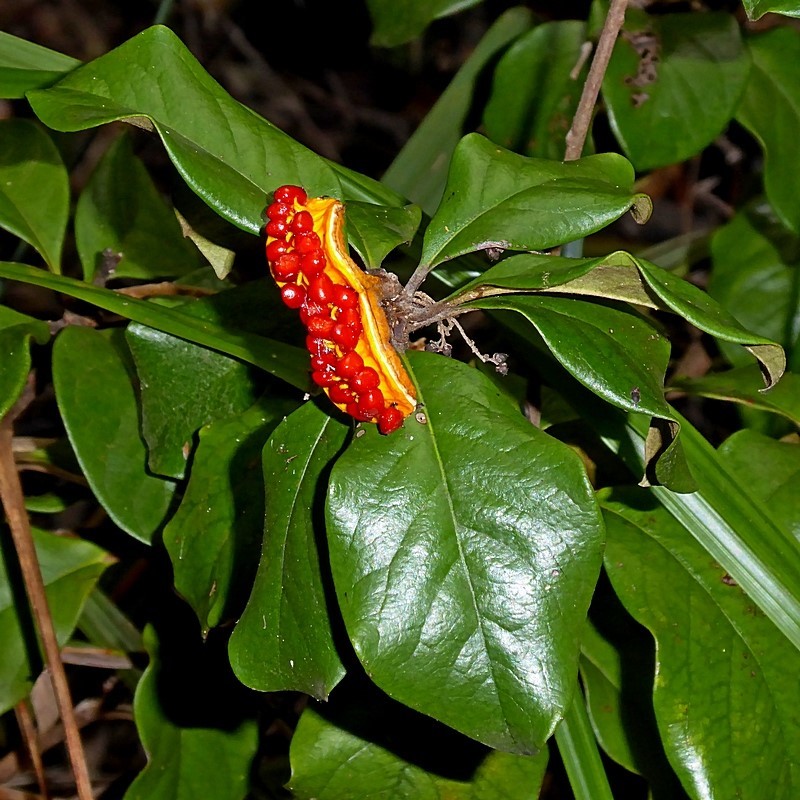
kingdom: Plantae
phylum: Tracheophyta
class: Magnoliopsida
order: Apiales
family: Pittosporaceae
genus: Pittosporum
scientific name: Pittosporum revolutum
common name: Brisbane-laurel
